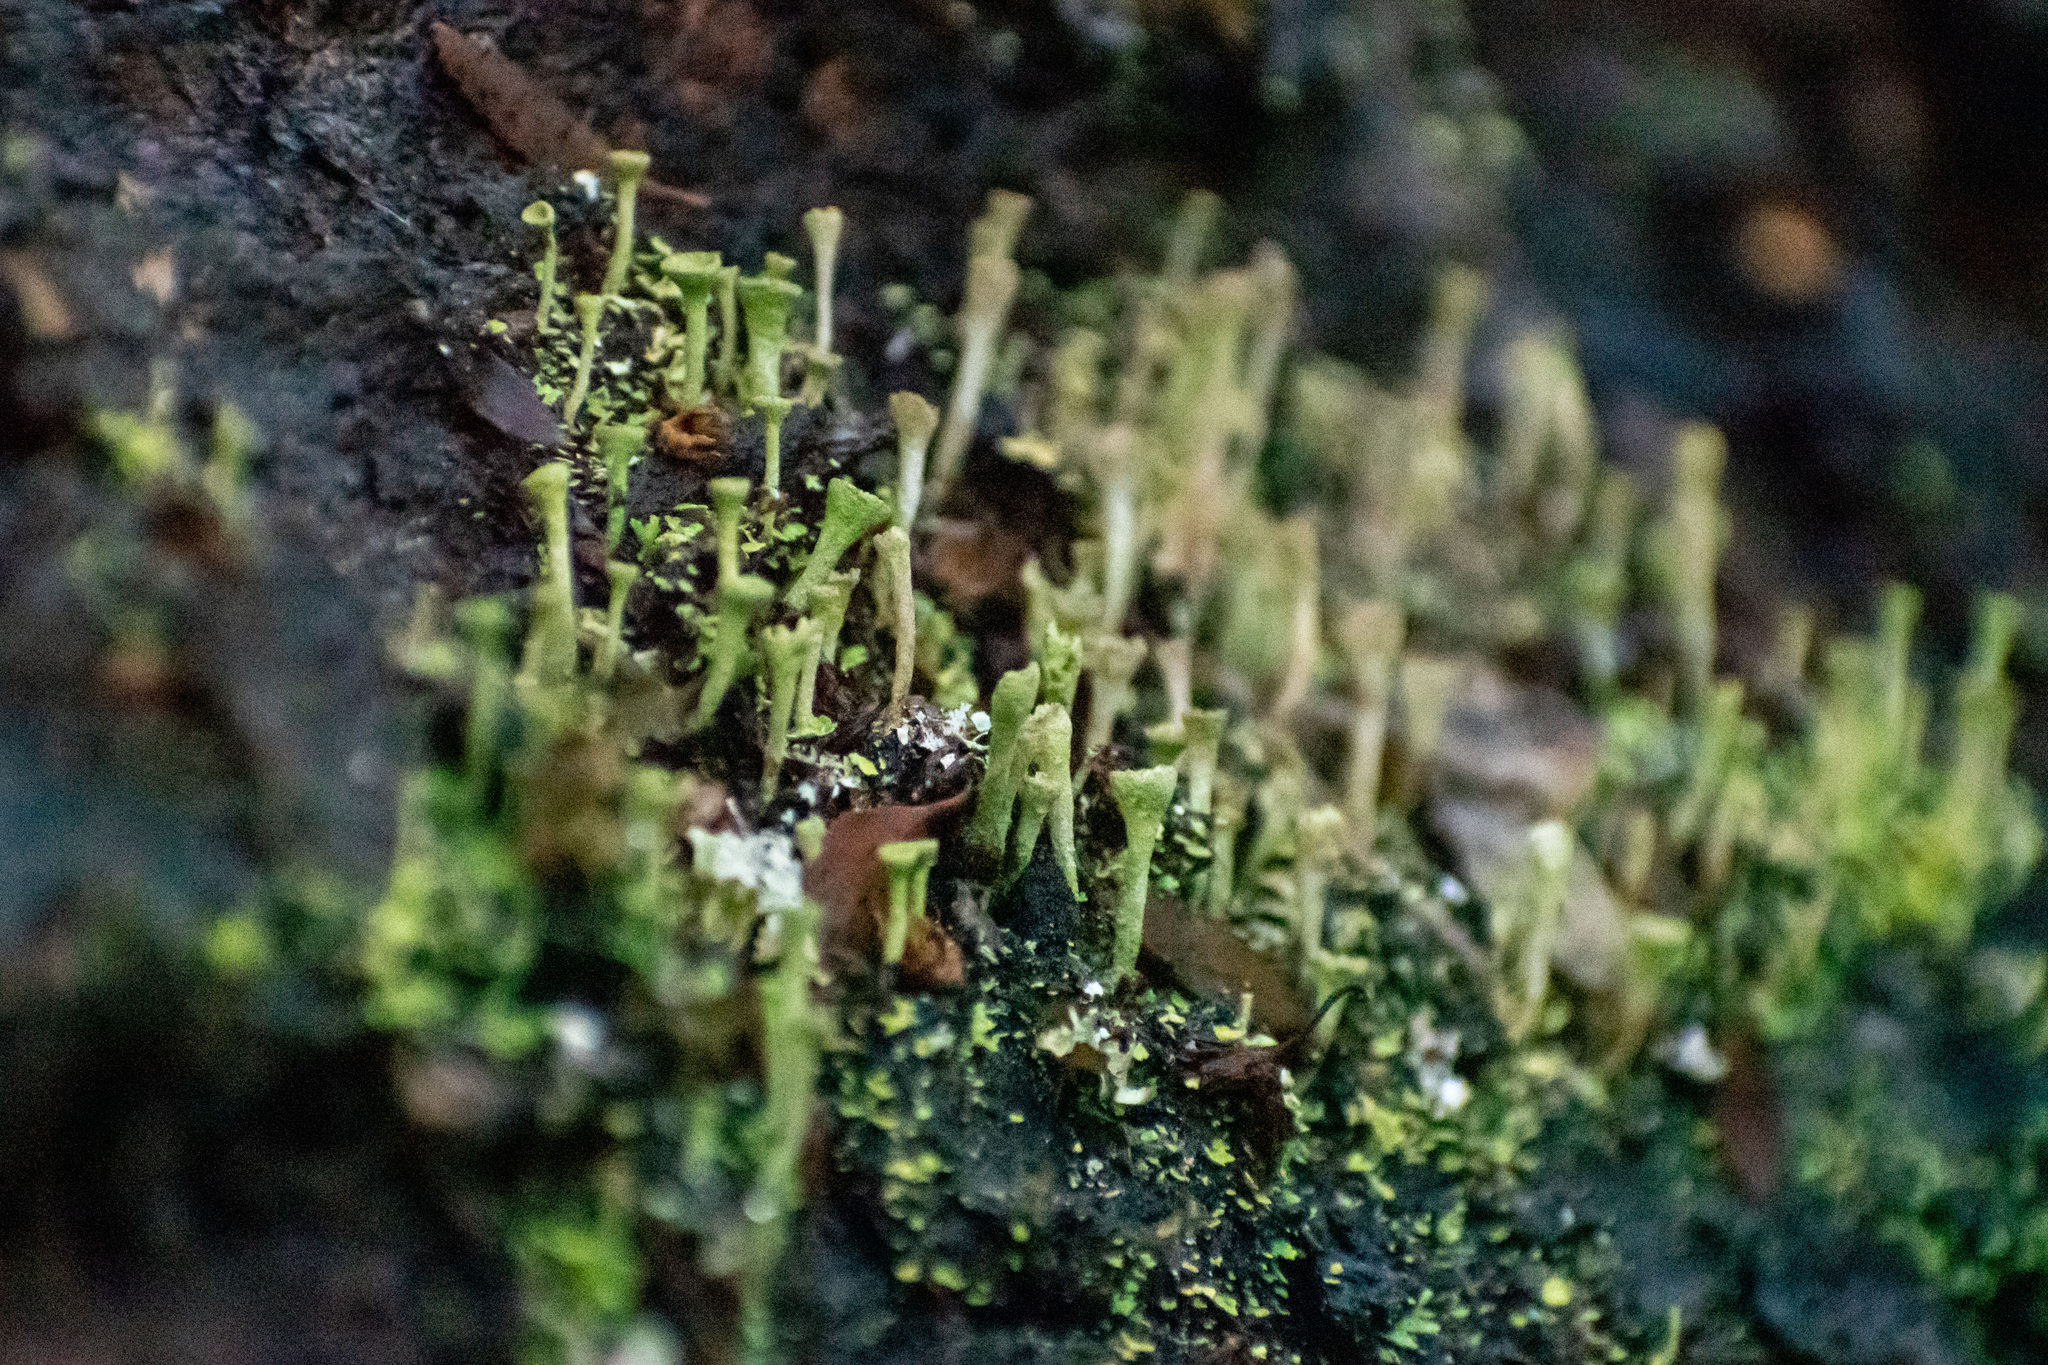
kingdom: Fungi
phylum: Ascomycota
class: Lecanoromycetes
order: Lecanorales
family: Cladoniaceae
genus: Cladonia
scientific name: Cladonia fimbriata
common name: Powdered trumpet lichen
